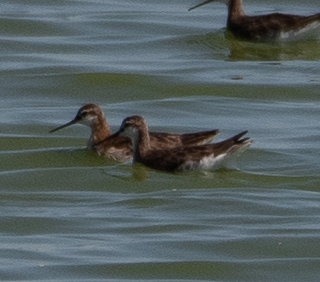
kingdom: Animalia
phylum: Chordata
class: Aves
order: Charadriiformes
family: Scolopacidae
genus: Phalaropus
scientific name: Phalaropus tricolor
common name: Wilson's phalarope
